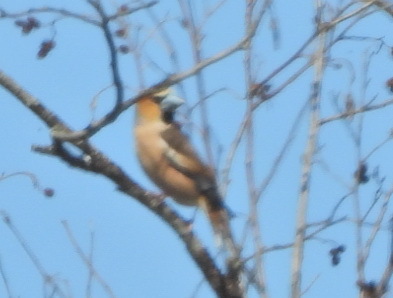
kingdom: Animalia
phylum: Chordata
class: Aves
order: Passeriformes
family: Fringillidae
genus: Coccothraustes
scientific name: Coccothraustes coccothraustes
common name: Hawfinch
